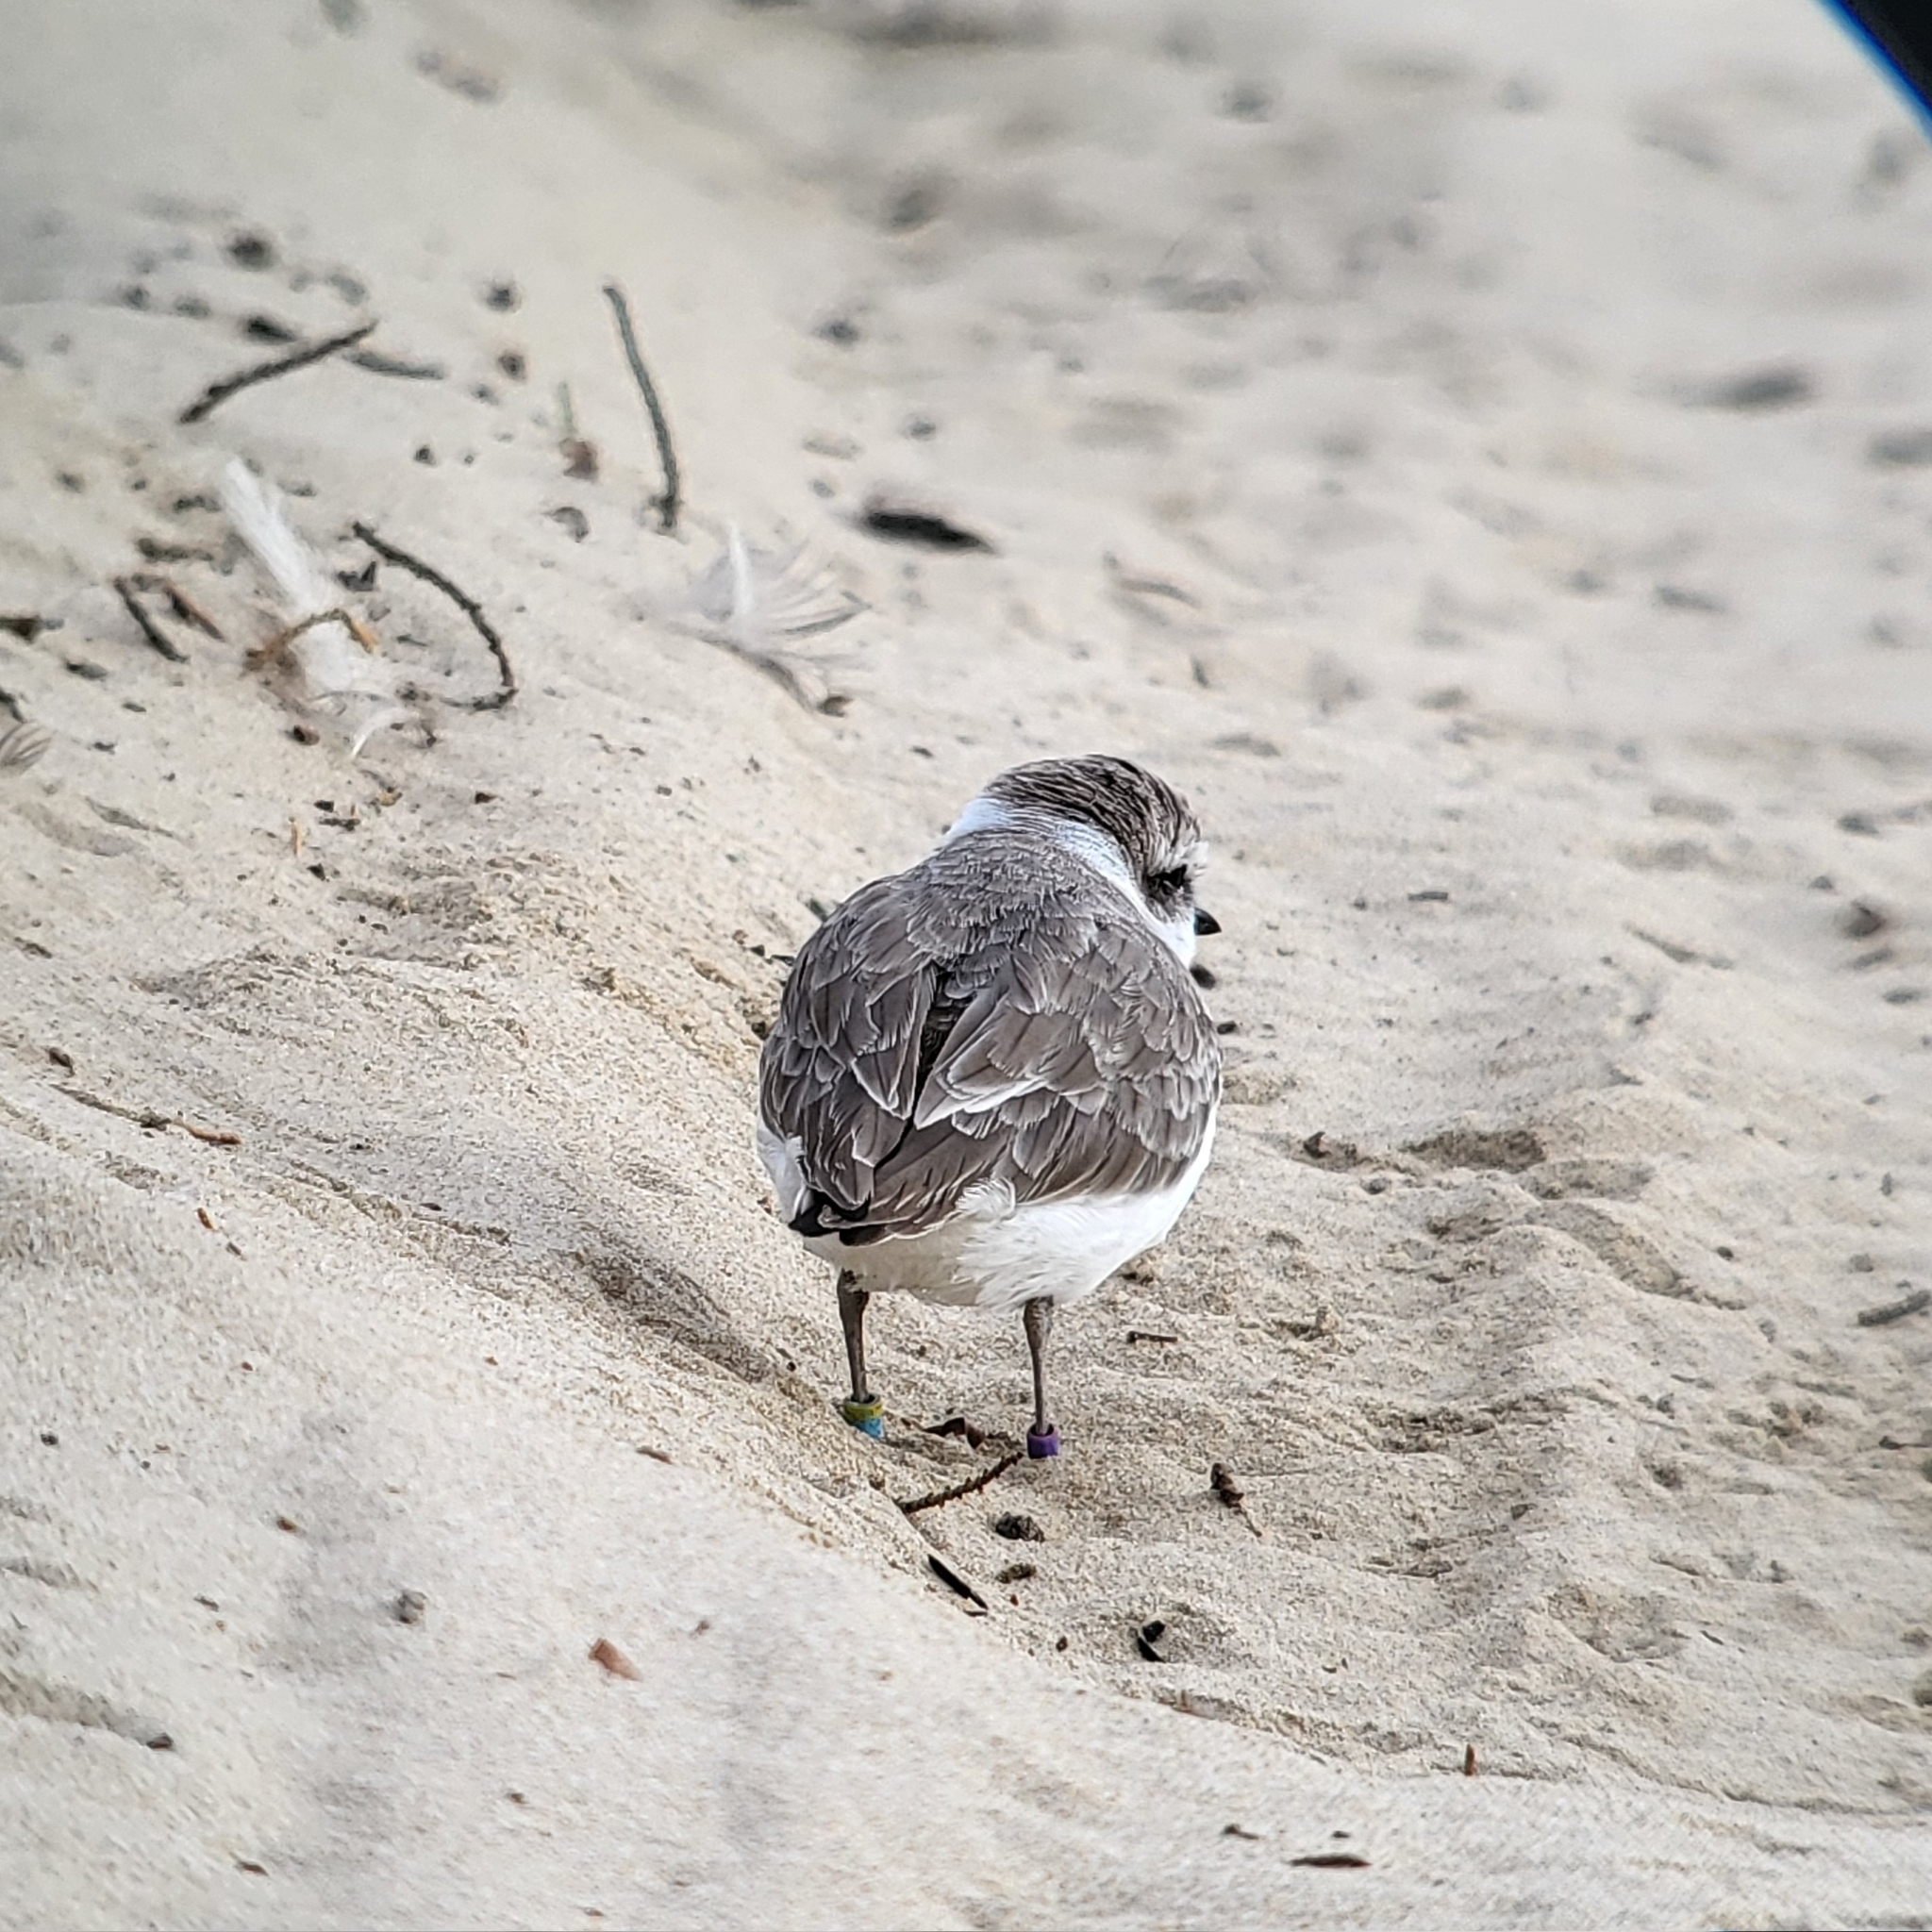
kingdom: Animalia
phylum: Chordata
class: Aves
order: Charadriiformes
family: Charadriidae
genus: Anarhynchus
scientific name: Anarhynchus
